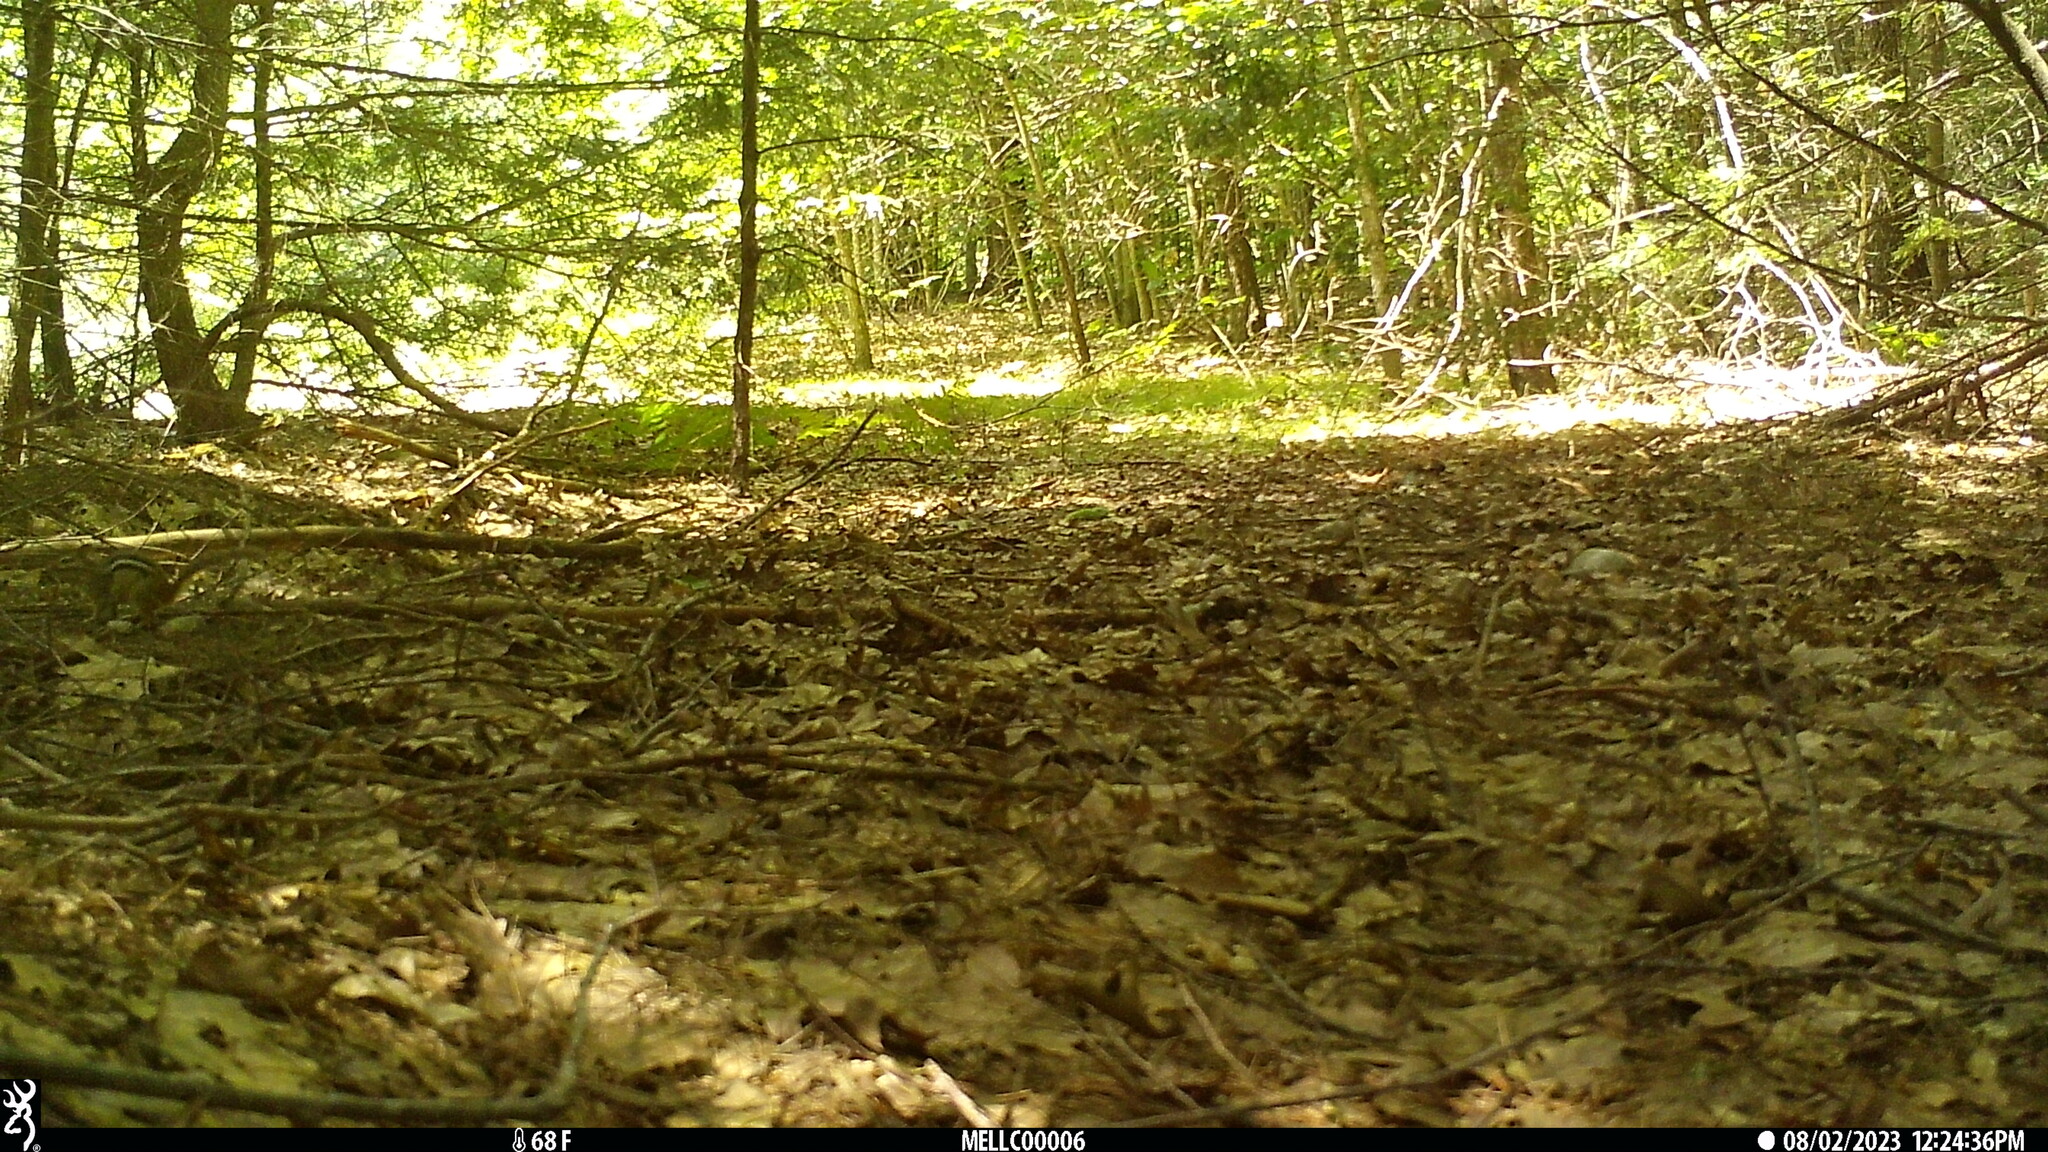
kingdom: Animalia
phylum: Chordata
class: Mammalia
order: Rodentia
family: Sciuridae
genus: Tamias
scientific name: Tamias striatus
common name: Eastern chipmunk
